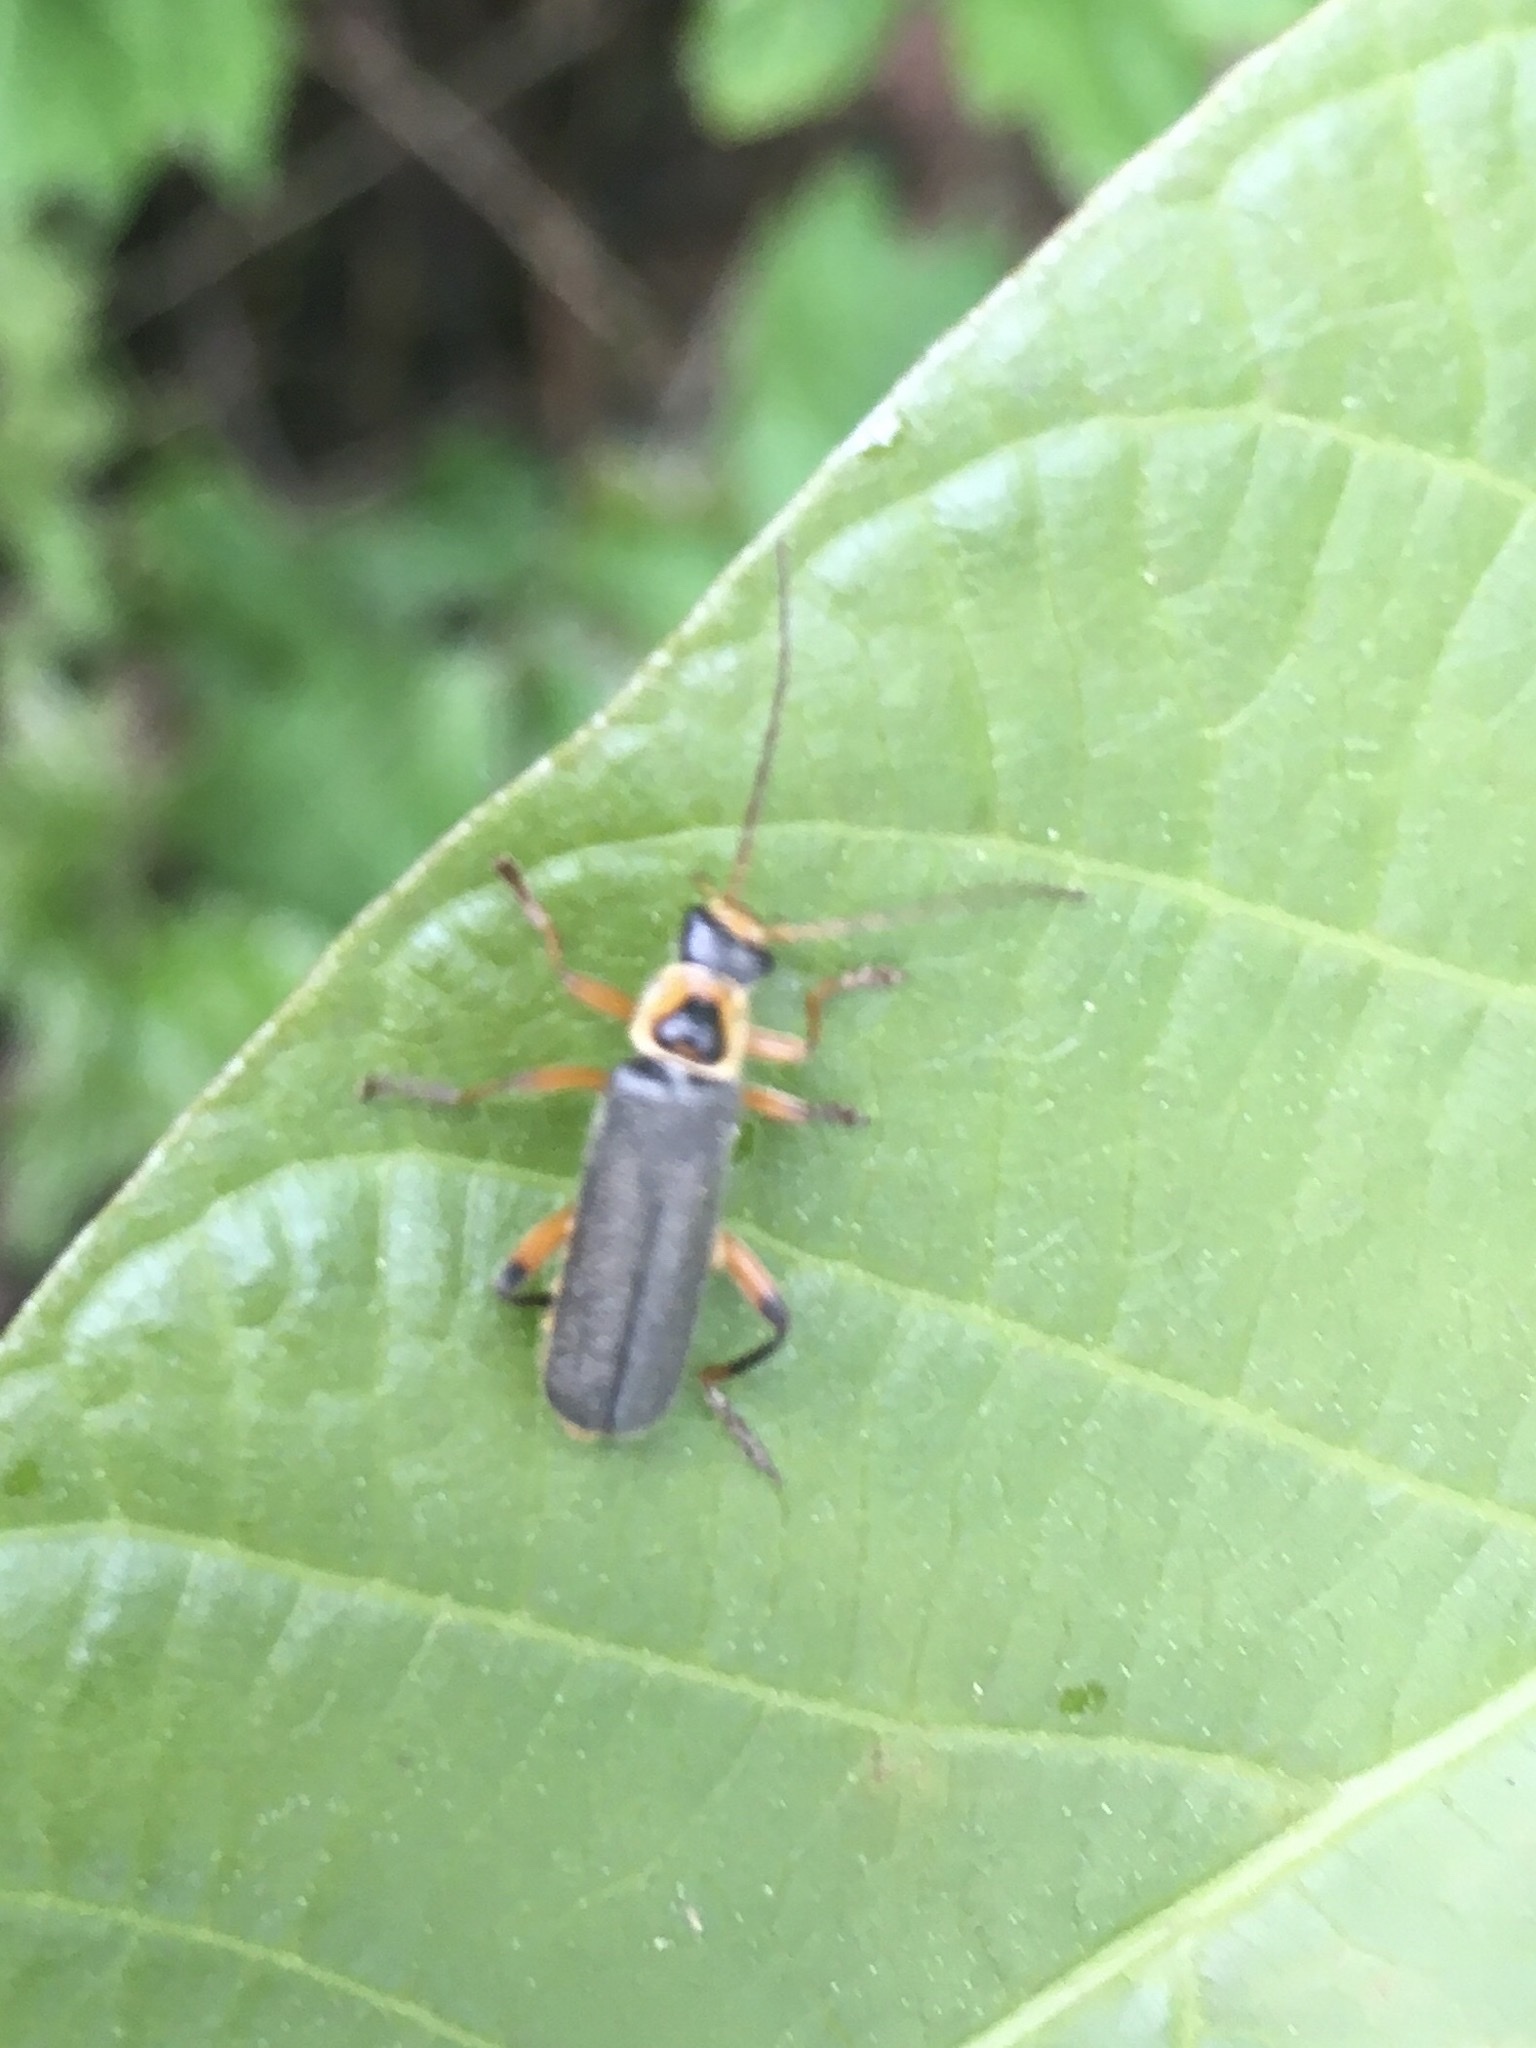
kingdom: Animalia
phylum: Arthropoda
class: Insecta
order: Coleoptera
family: Cantharidae
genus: Cantharis
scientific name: Cantharis nigricans
